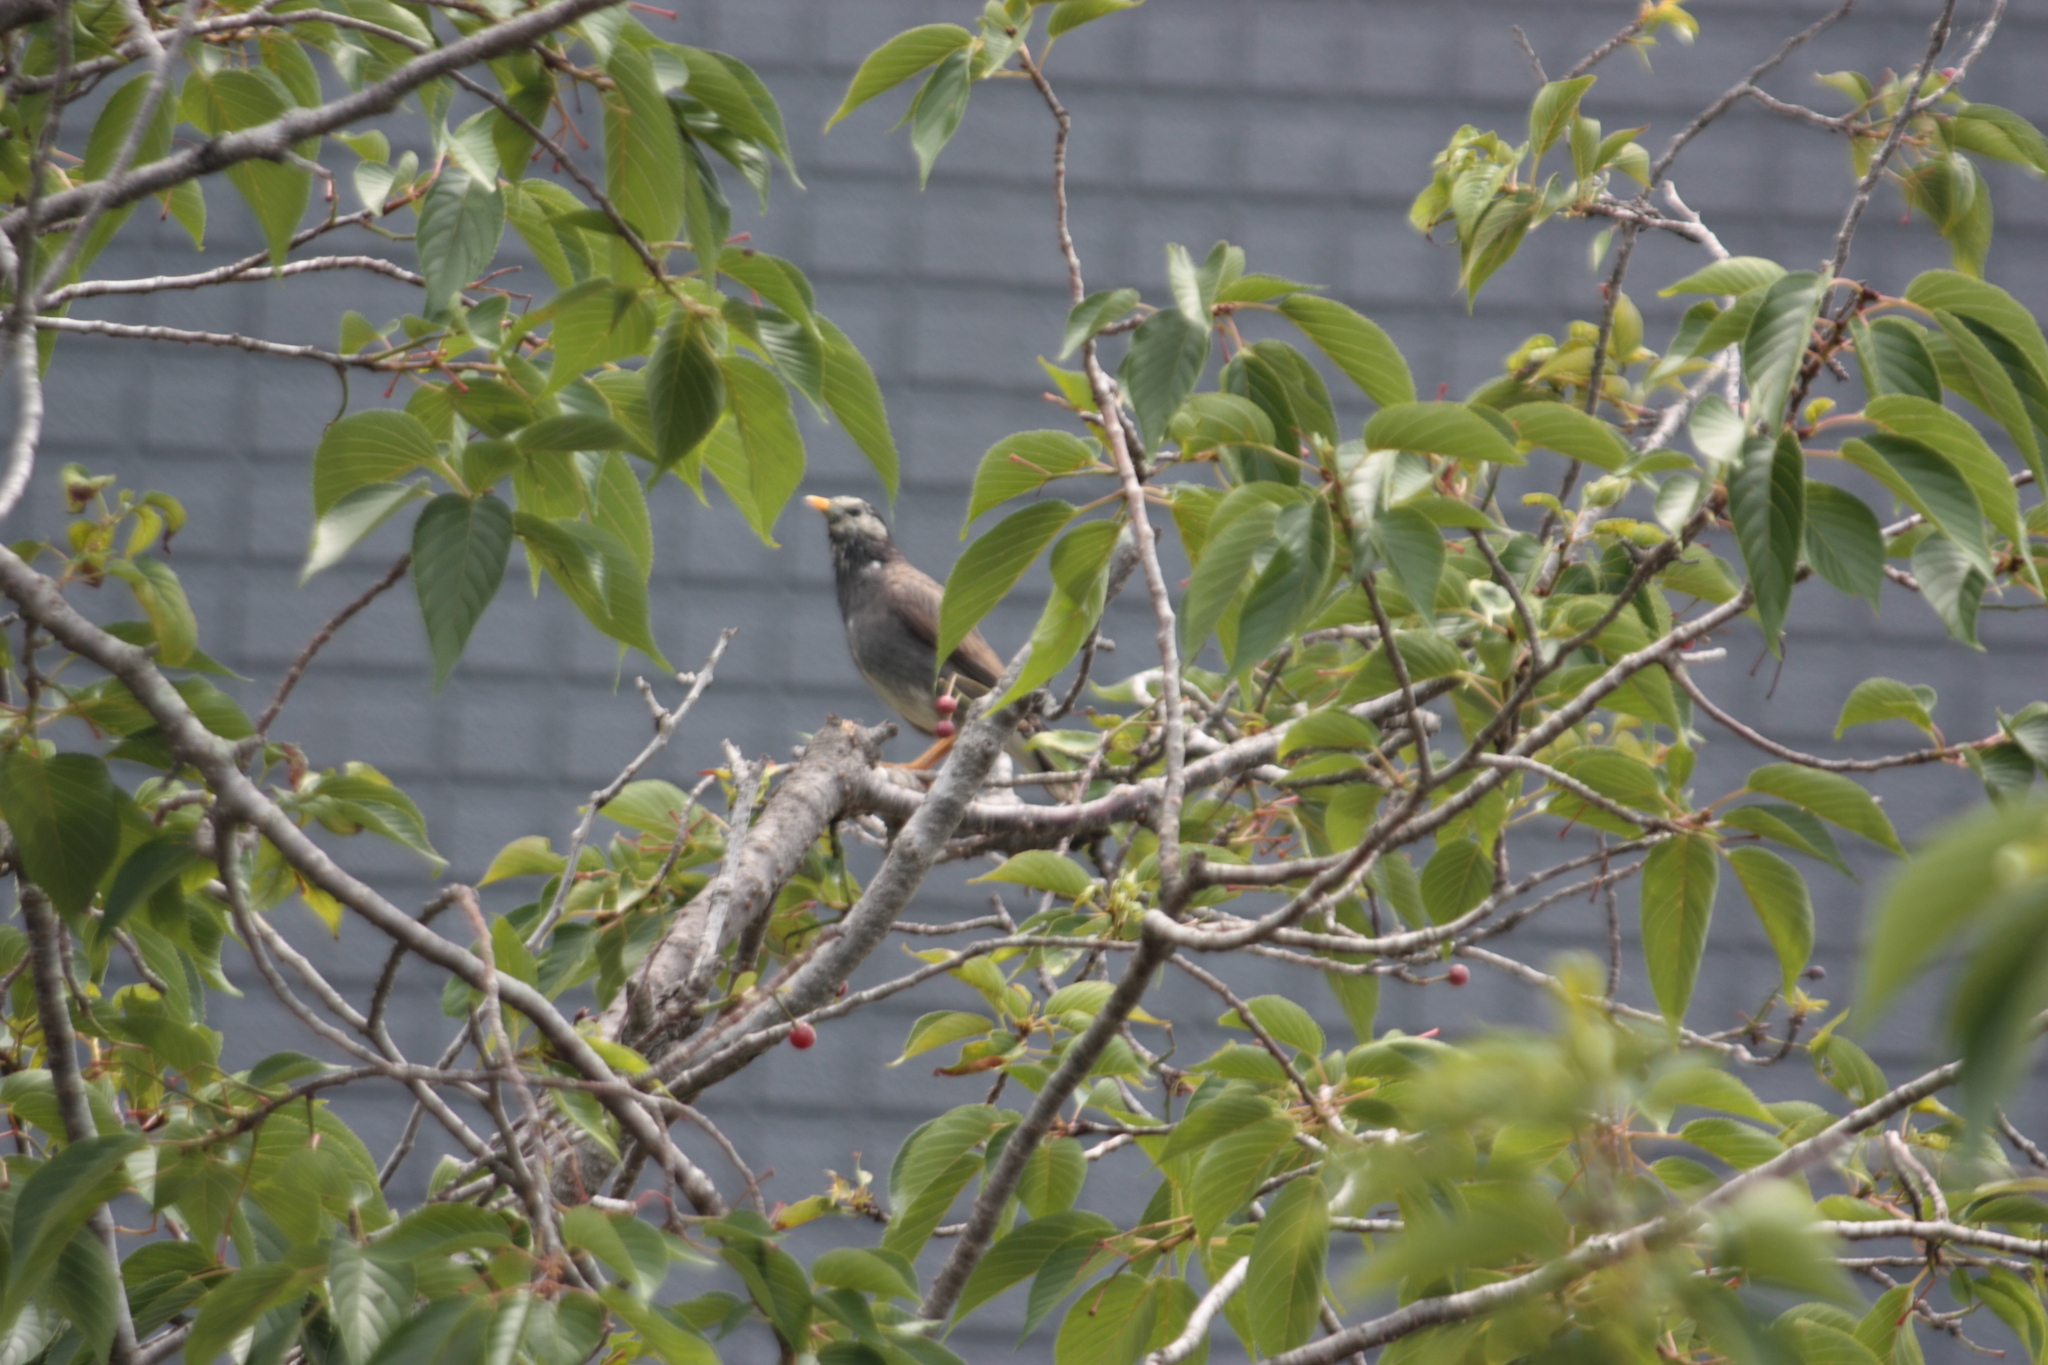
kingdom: Animalia
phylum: Chordata
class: Aves
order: Passeriformes
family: Sturnidae
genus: Spodiopsar
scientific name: Spodiopsar cineraceus
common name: White-cheeked starling
